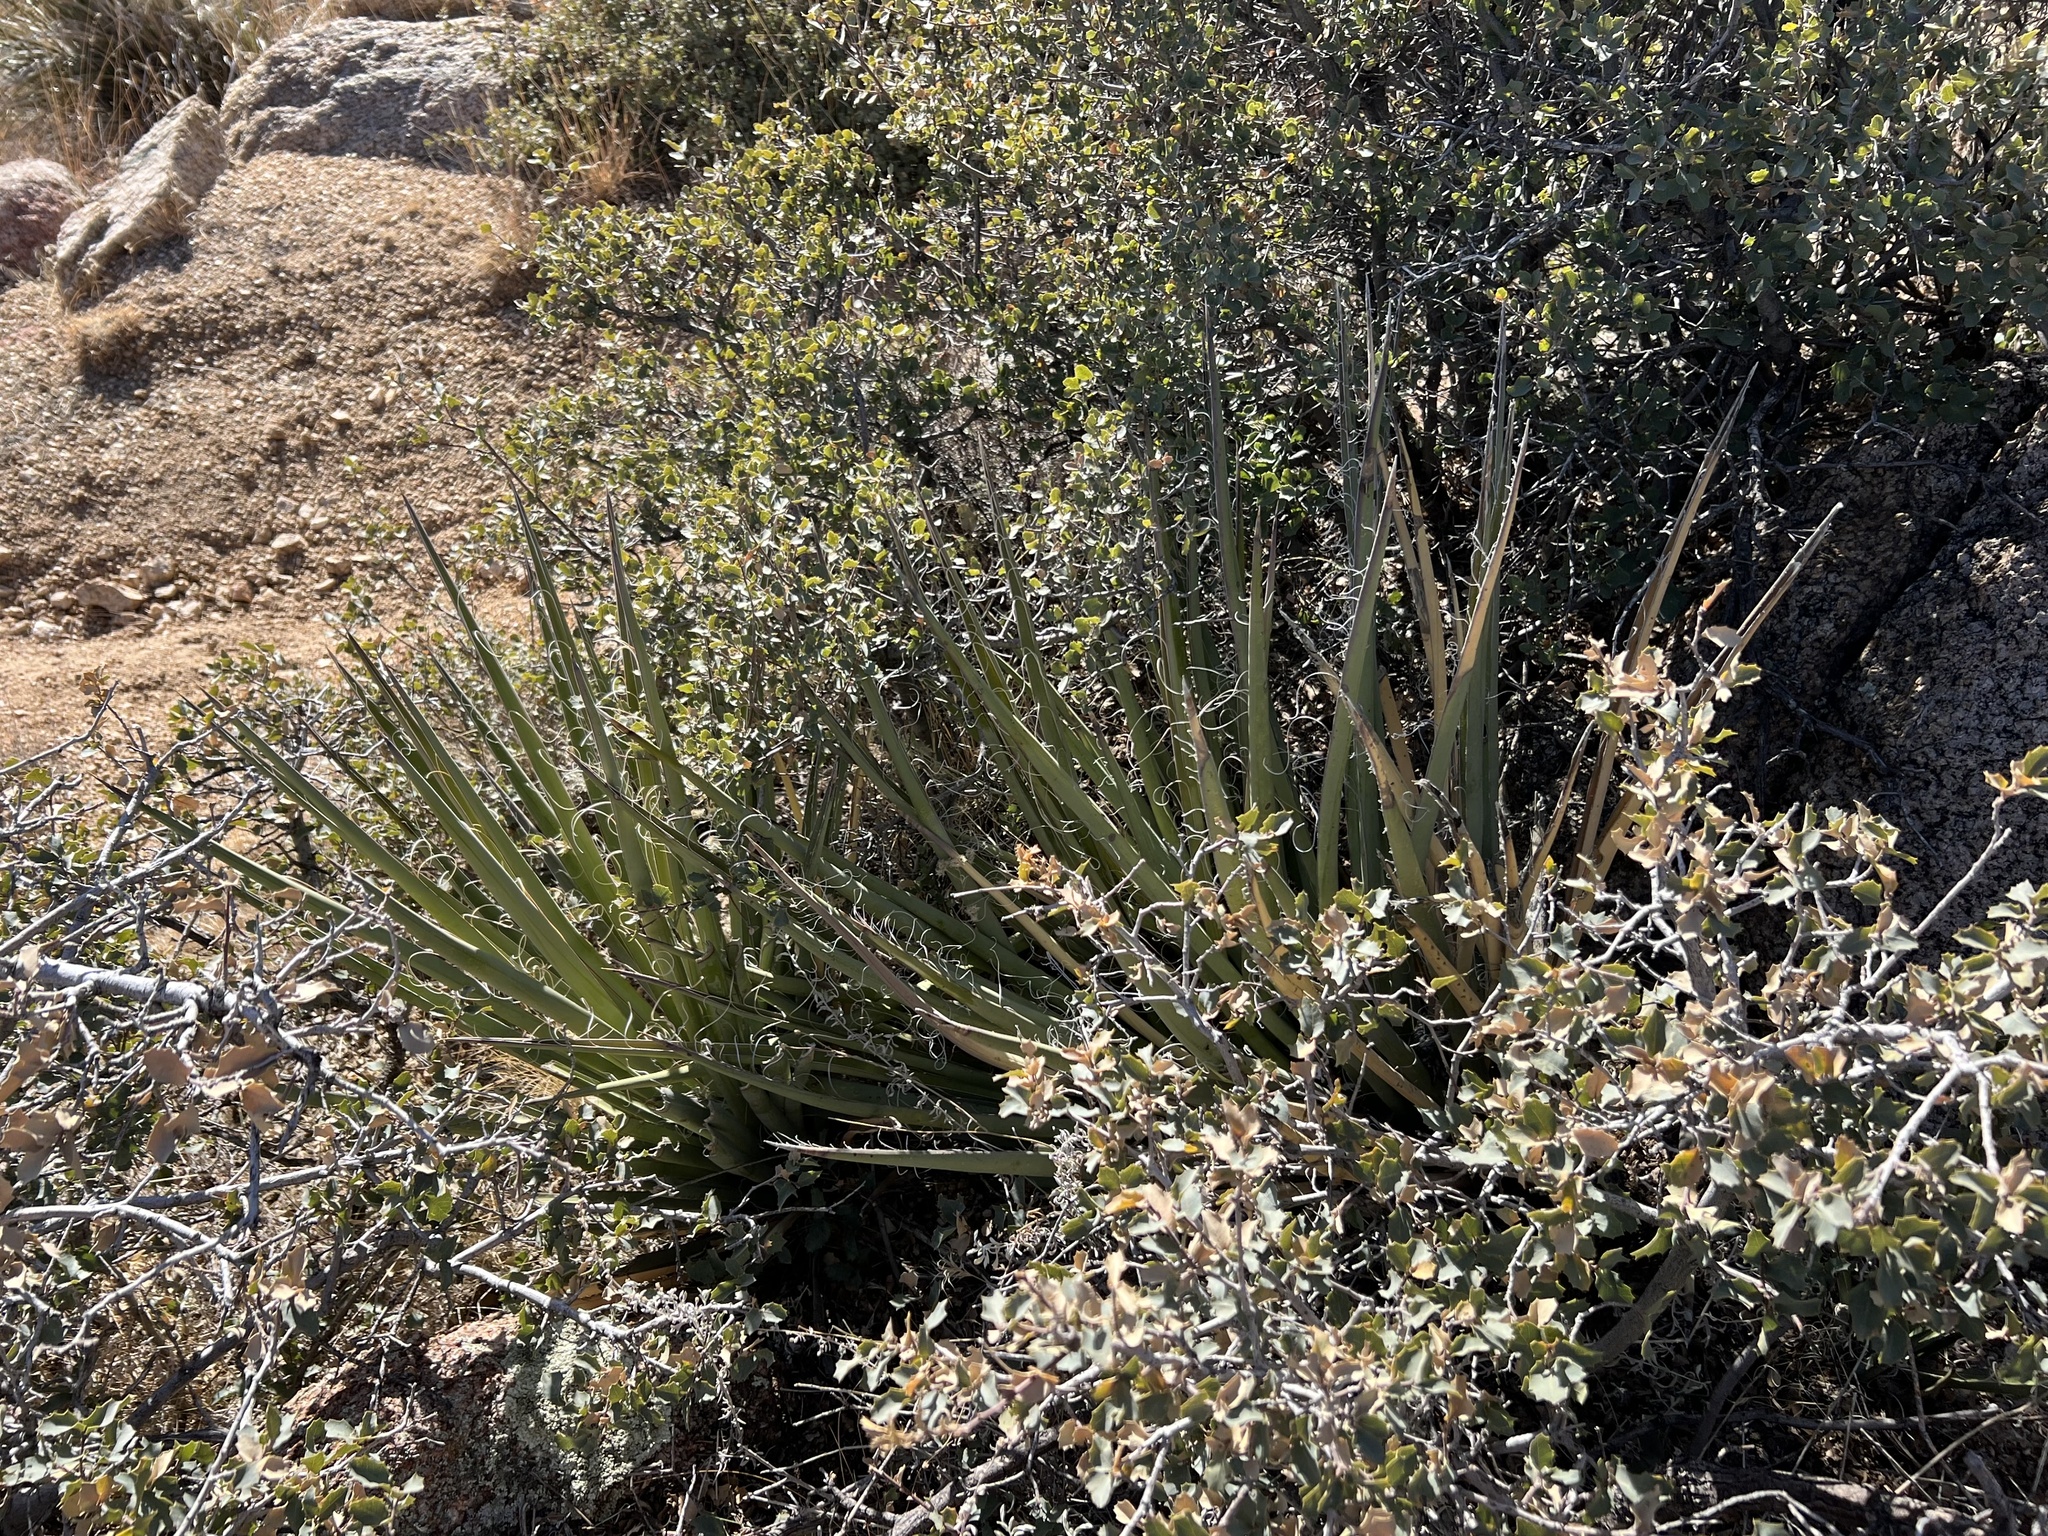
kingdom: Plantae
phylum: Tracheophyta
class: Liliopsida
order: Asparagales
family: Asparagaceae
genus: Yucca
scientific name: Yucca baccata
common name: Banana yucca
